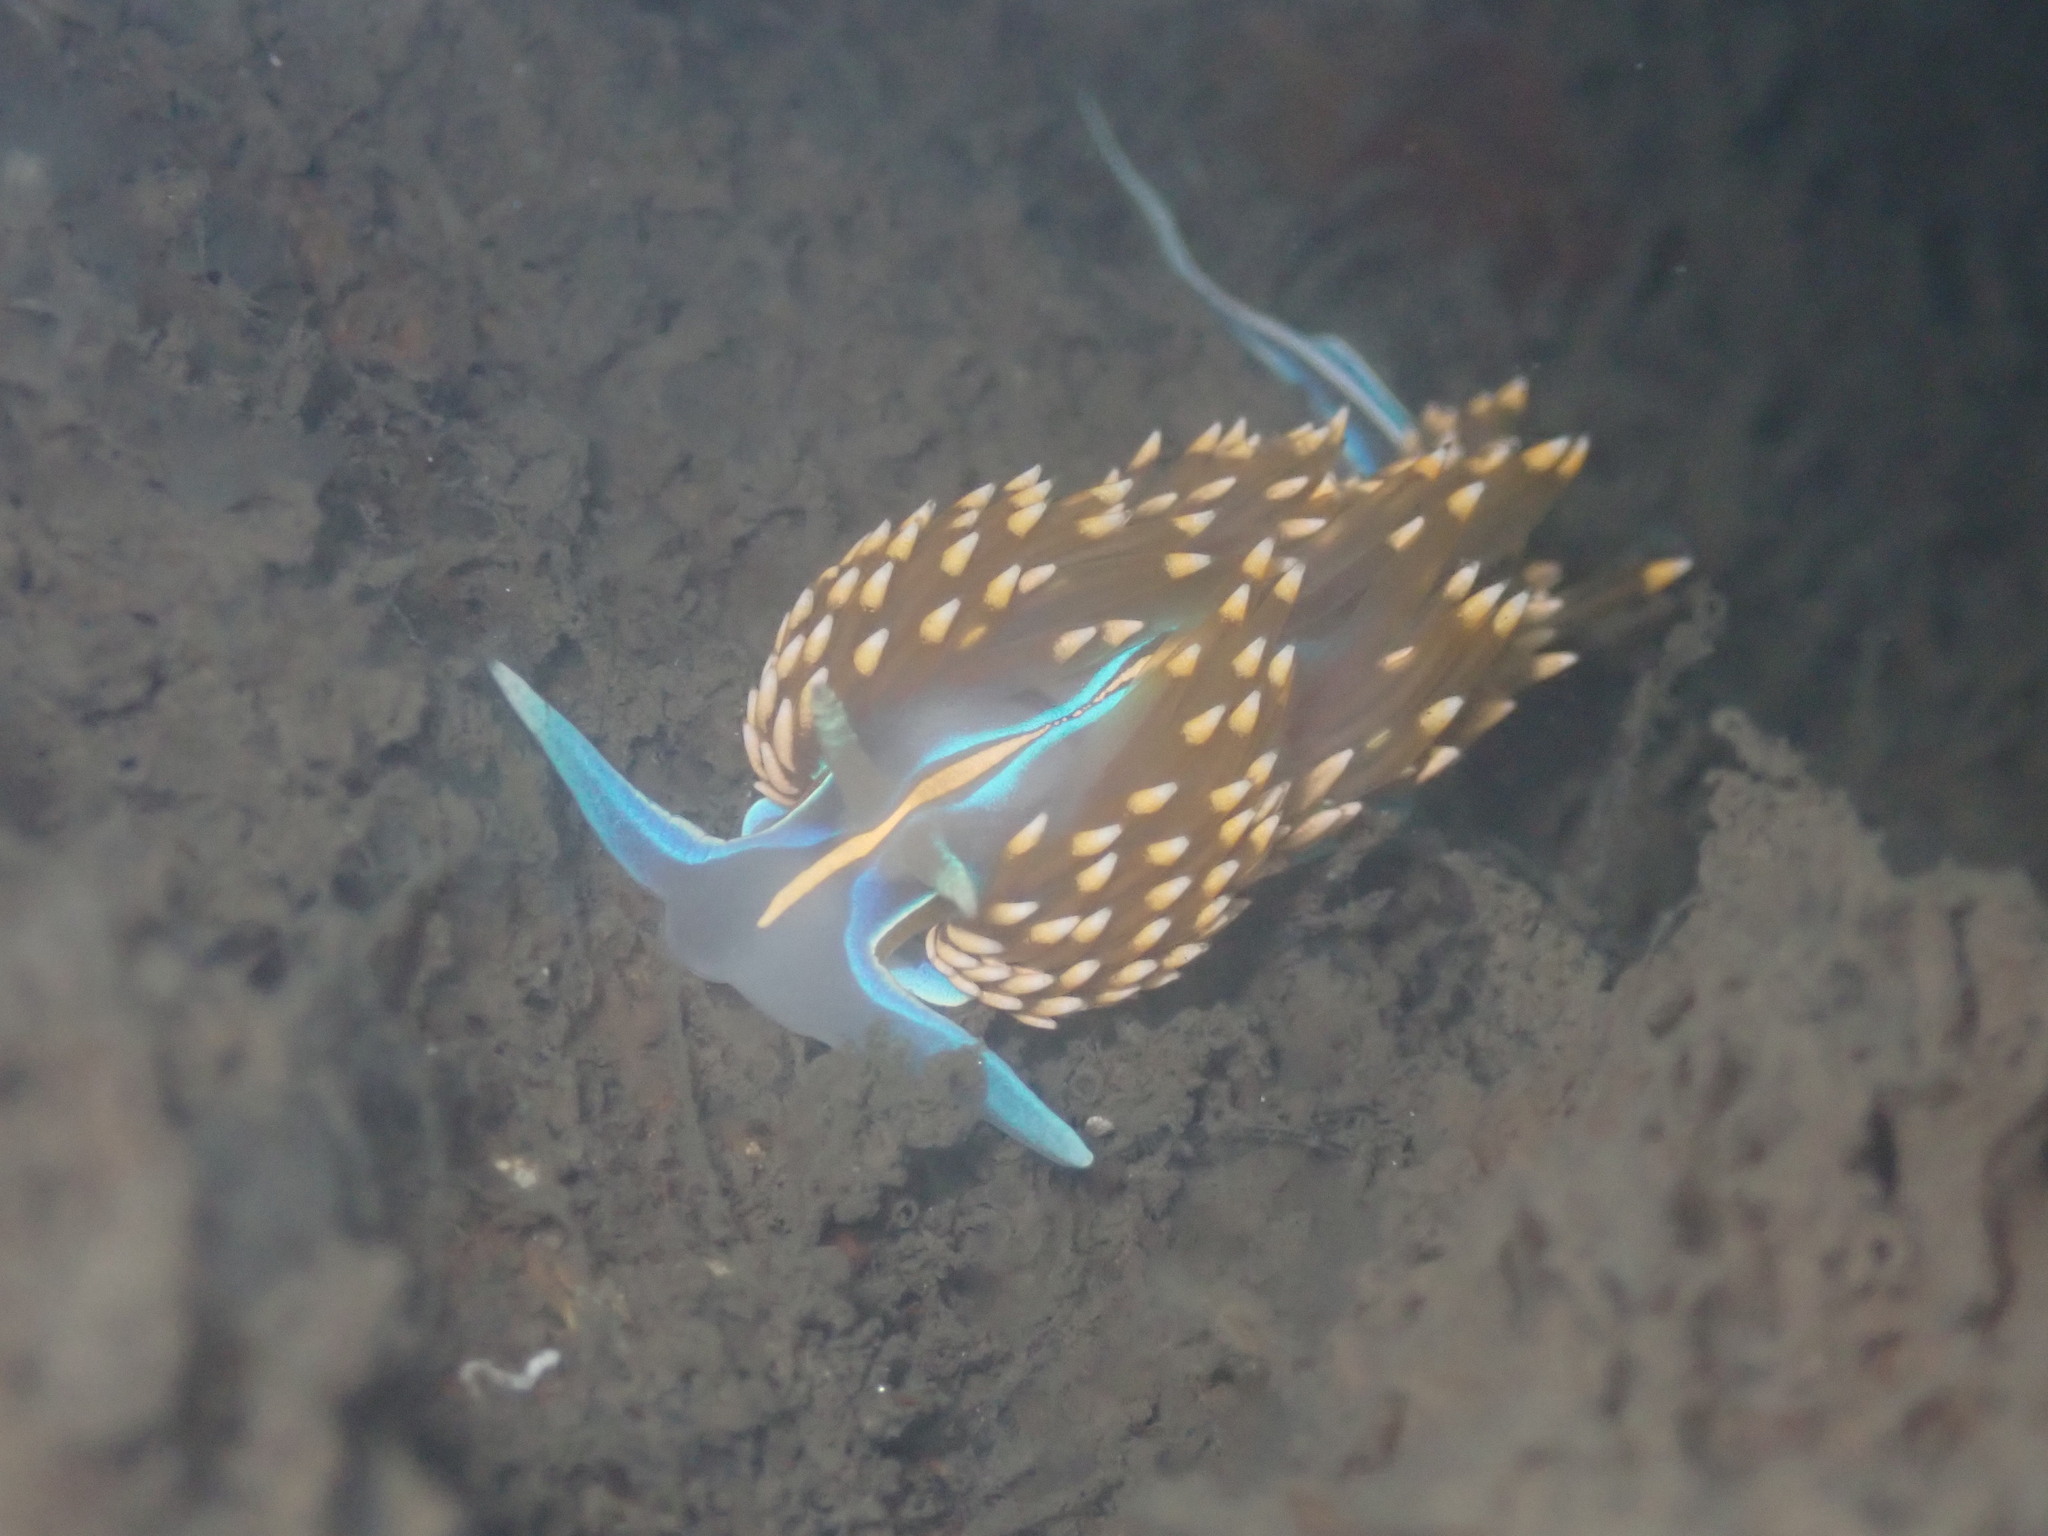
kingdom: Animalia
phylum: Mollusca
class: Gastropoda
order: Nudibranchia
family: Myrrhinidae
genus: Hermissenda
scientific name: Hermissenda opalescens
